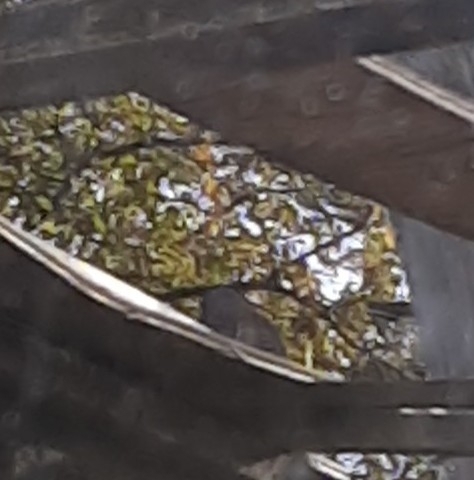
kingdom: Animalia
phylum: Chordata
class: Aves
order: Piciformes
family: Picidae
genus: Colaptes
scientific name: Colaptes auratus
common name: Northern flicker
